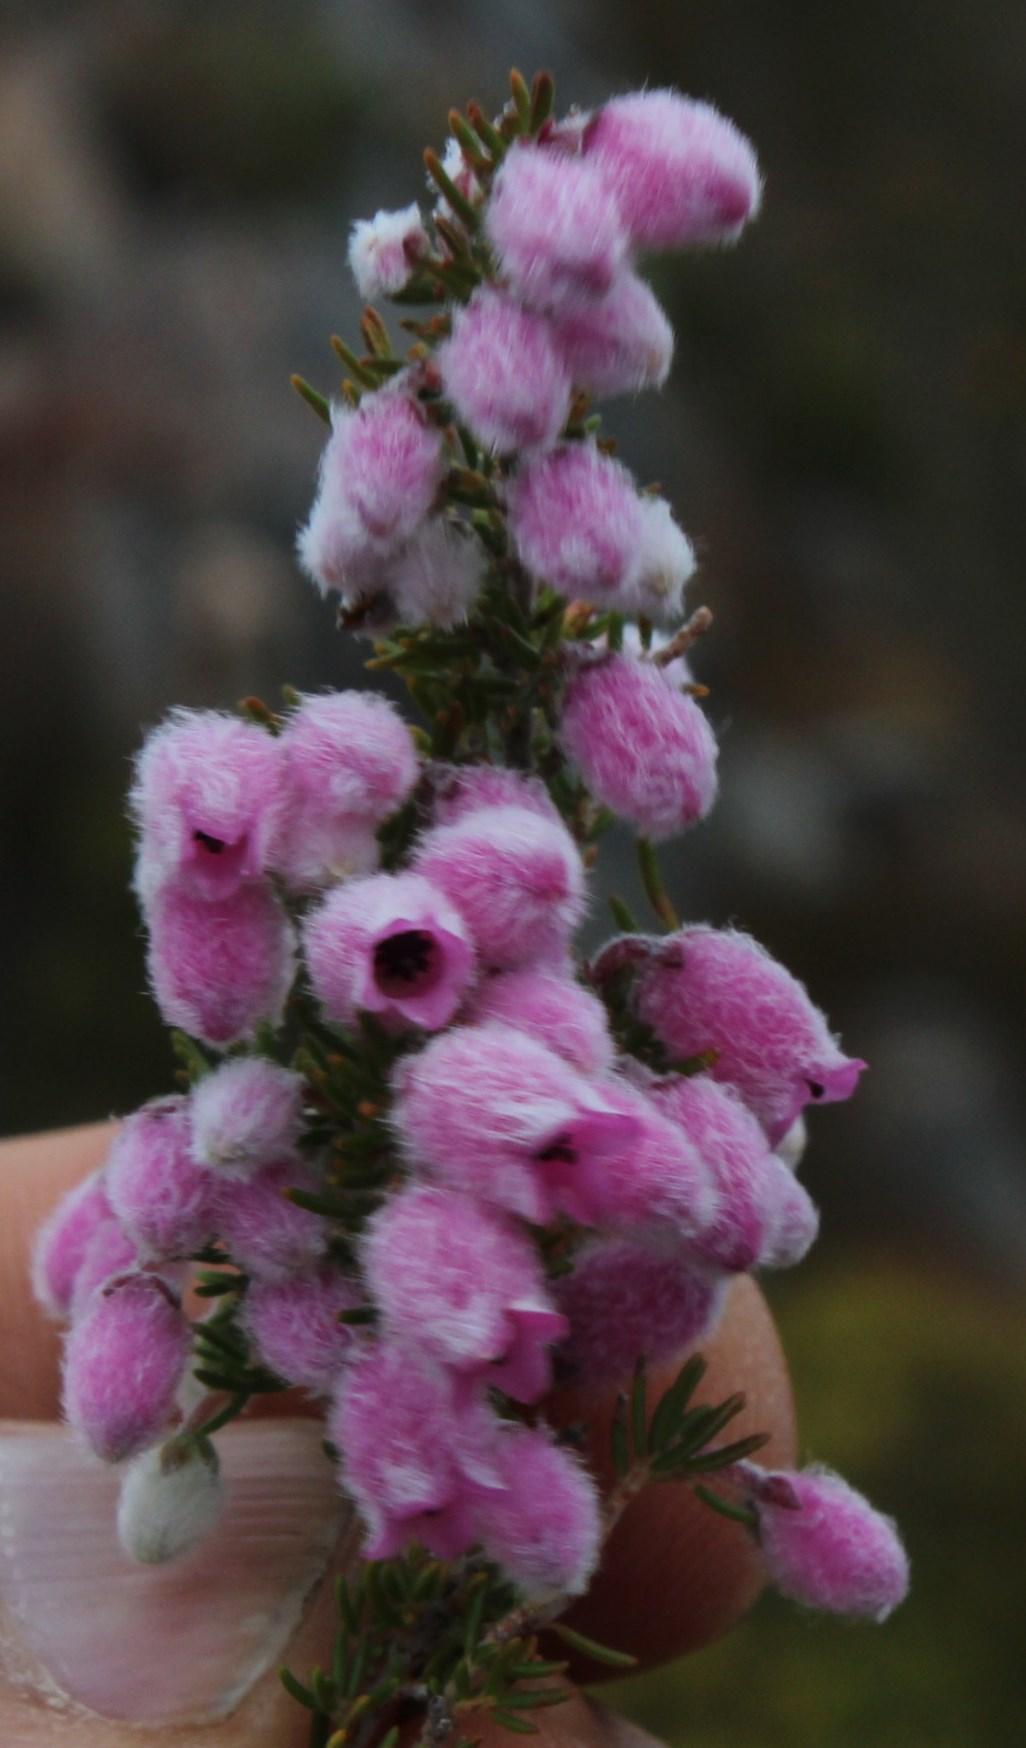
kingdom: Plantae
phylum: Tracheophyta
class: Magnoliopsida
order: Ericales
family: Ericaceae
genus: Erica
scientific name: Erica ovina
